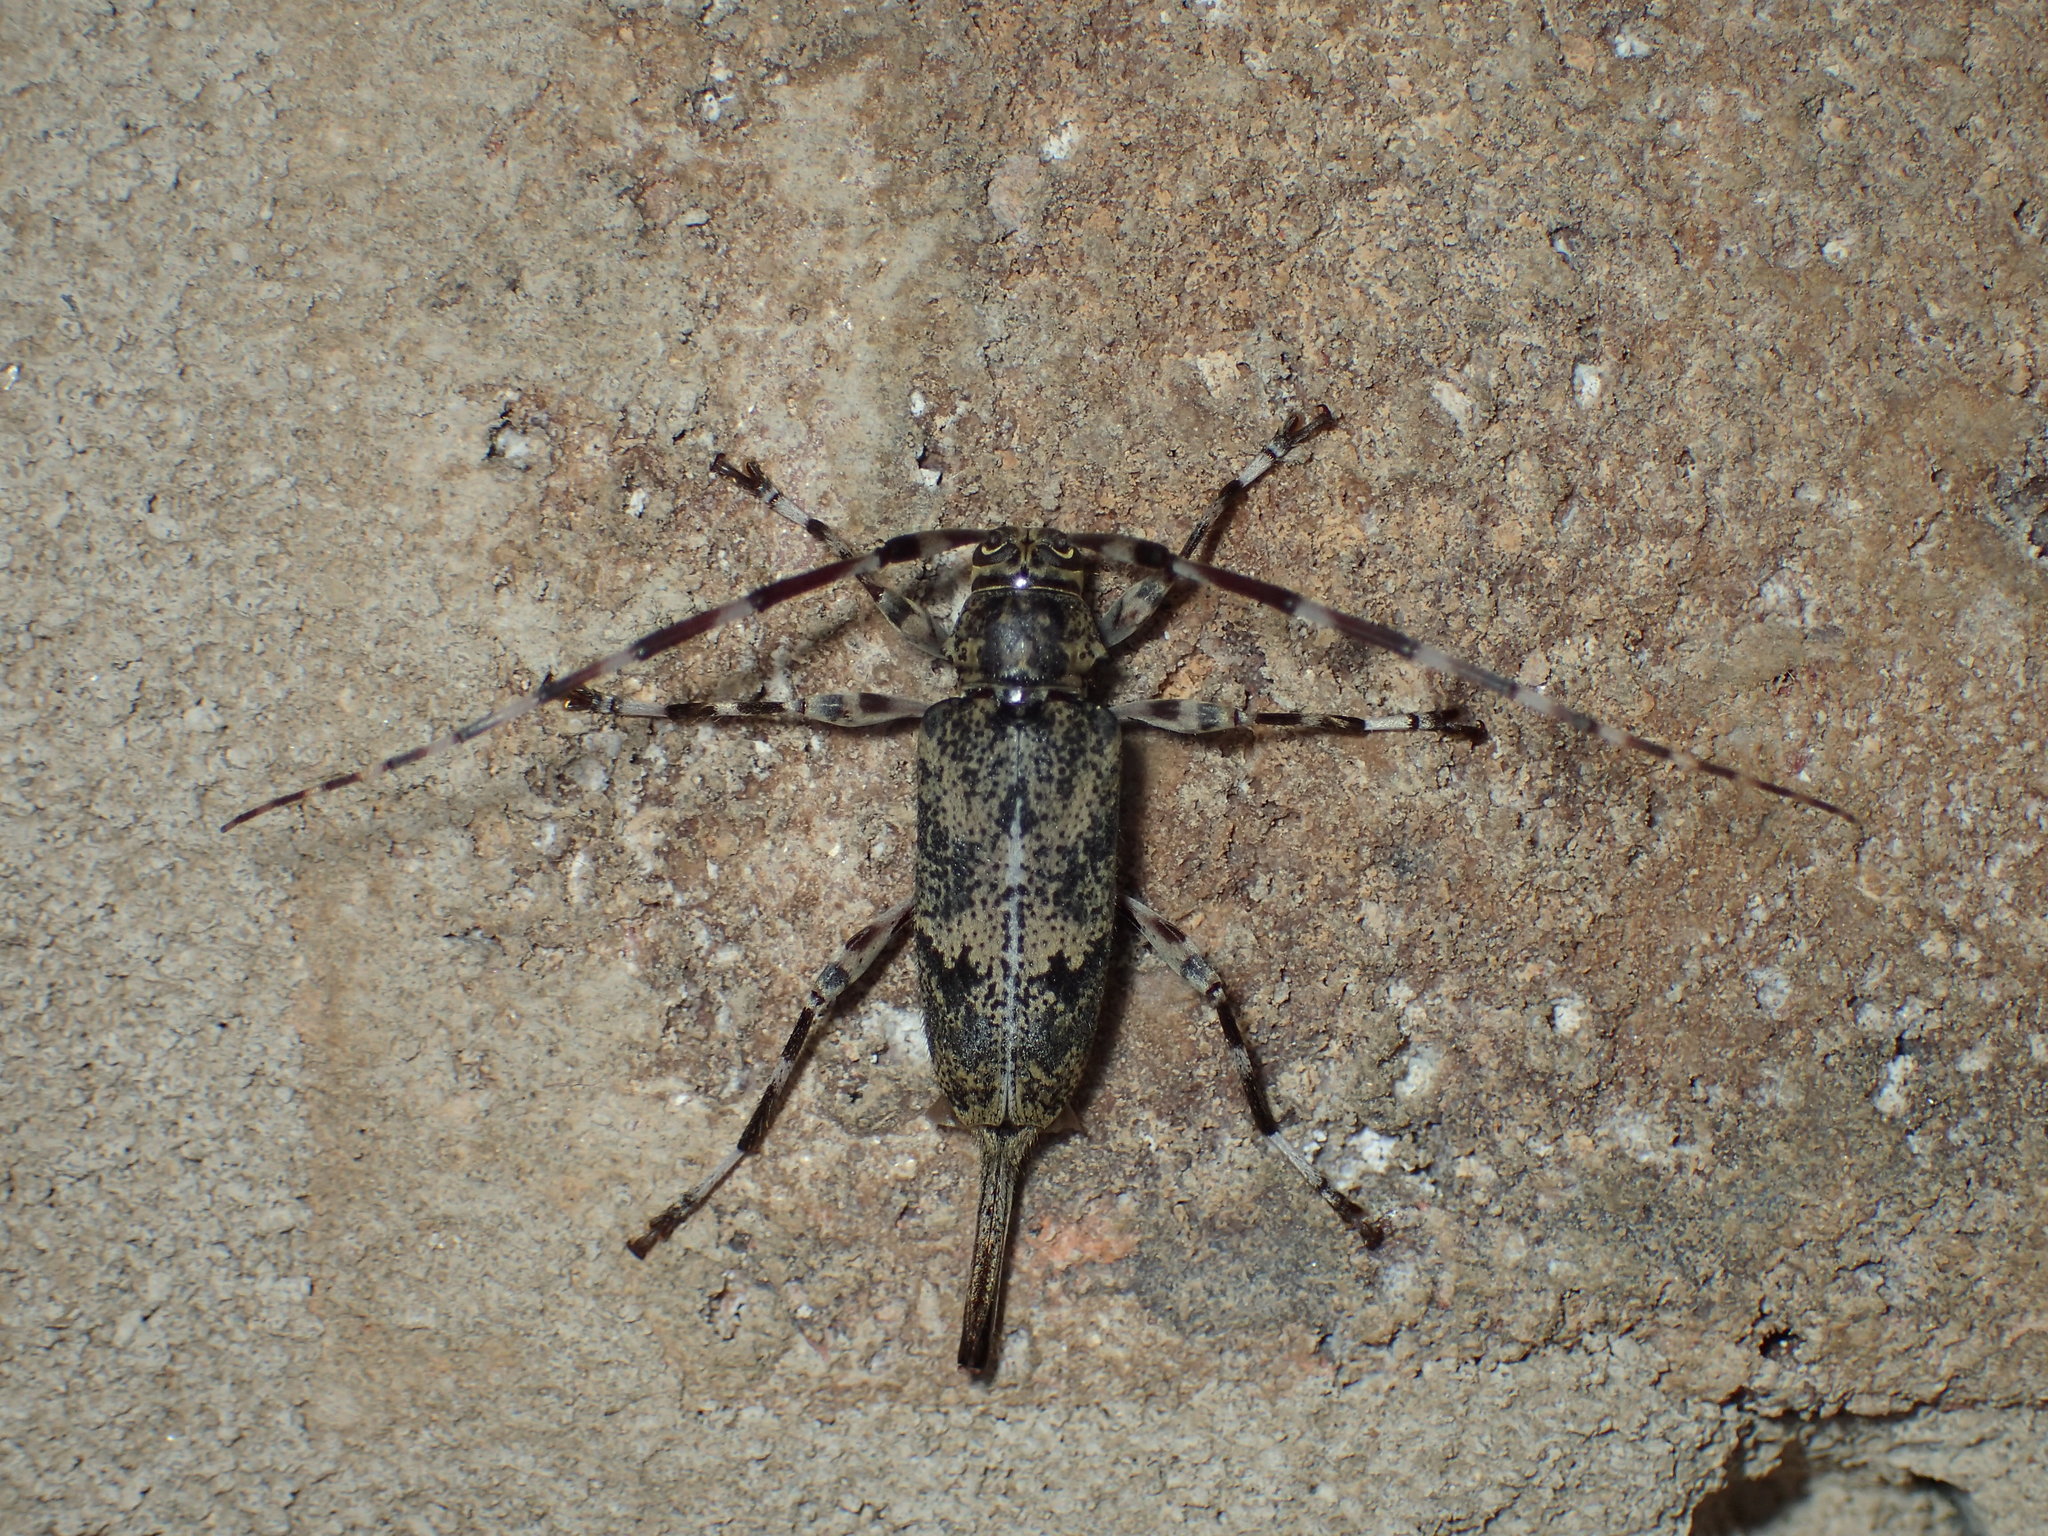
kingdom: Animalia
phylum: Arthropoda
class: Insecta
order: Coleoptera
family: Cerambycidae
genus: Graphisurus
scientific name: Graphisurus fasciatus
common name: Banded graphisurus
